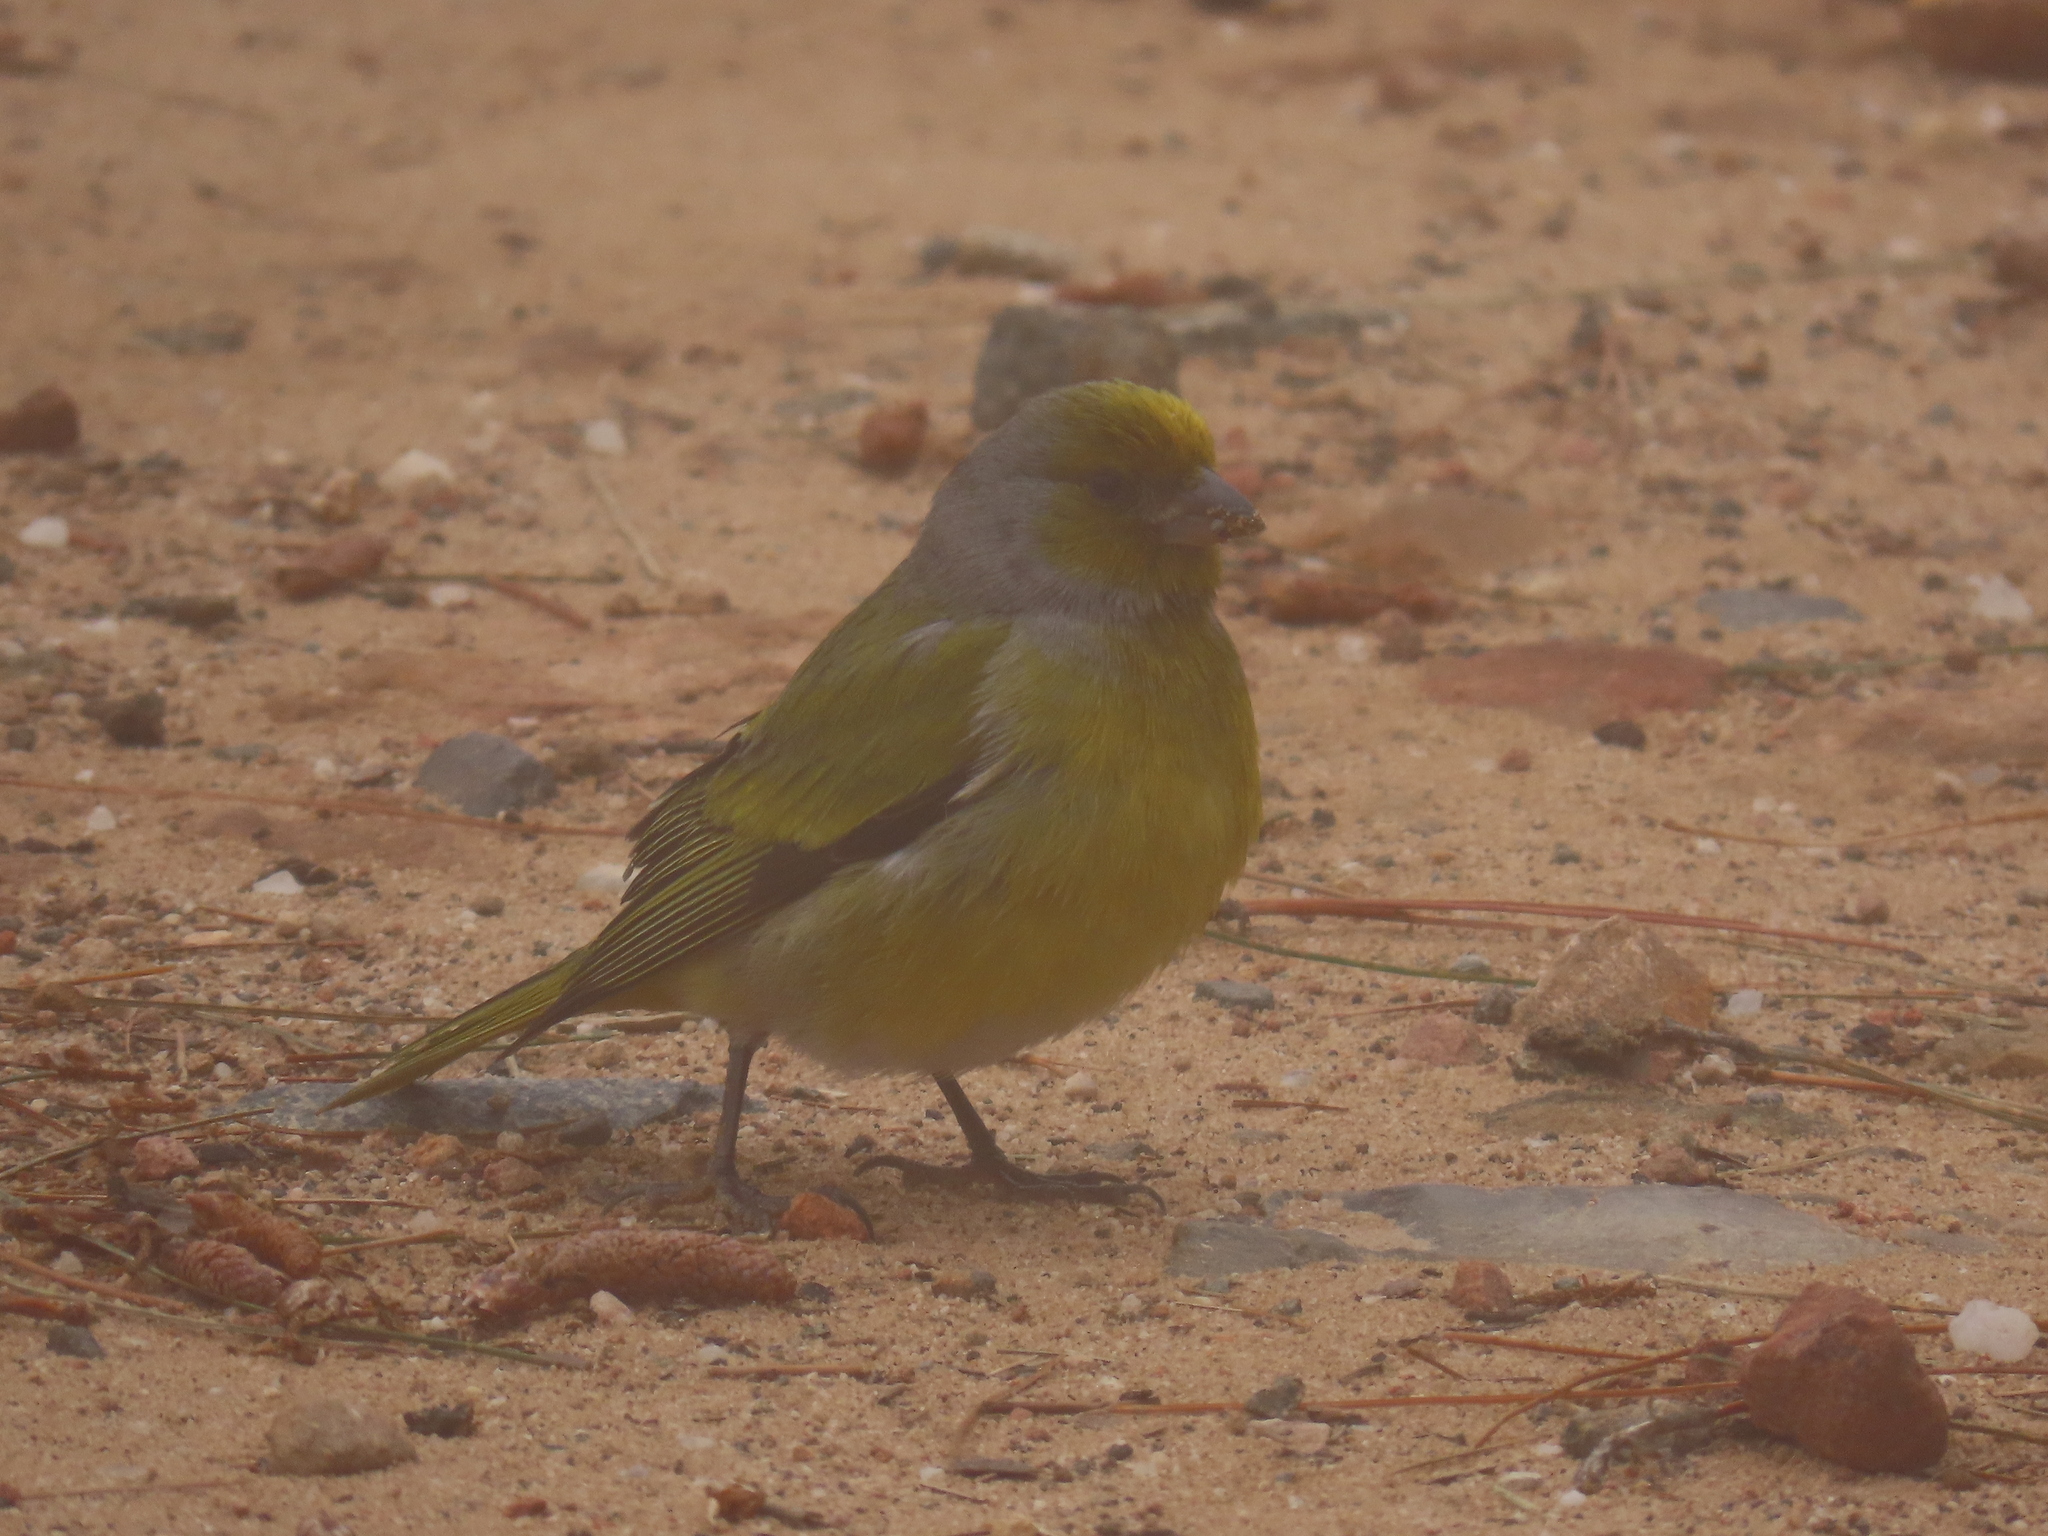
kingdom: Animalia
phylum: Chordata
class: Aves
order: Passeriformes
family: Fringillidae
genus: Serinus
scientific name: Serinus canicollis
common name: Cape canary
